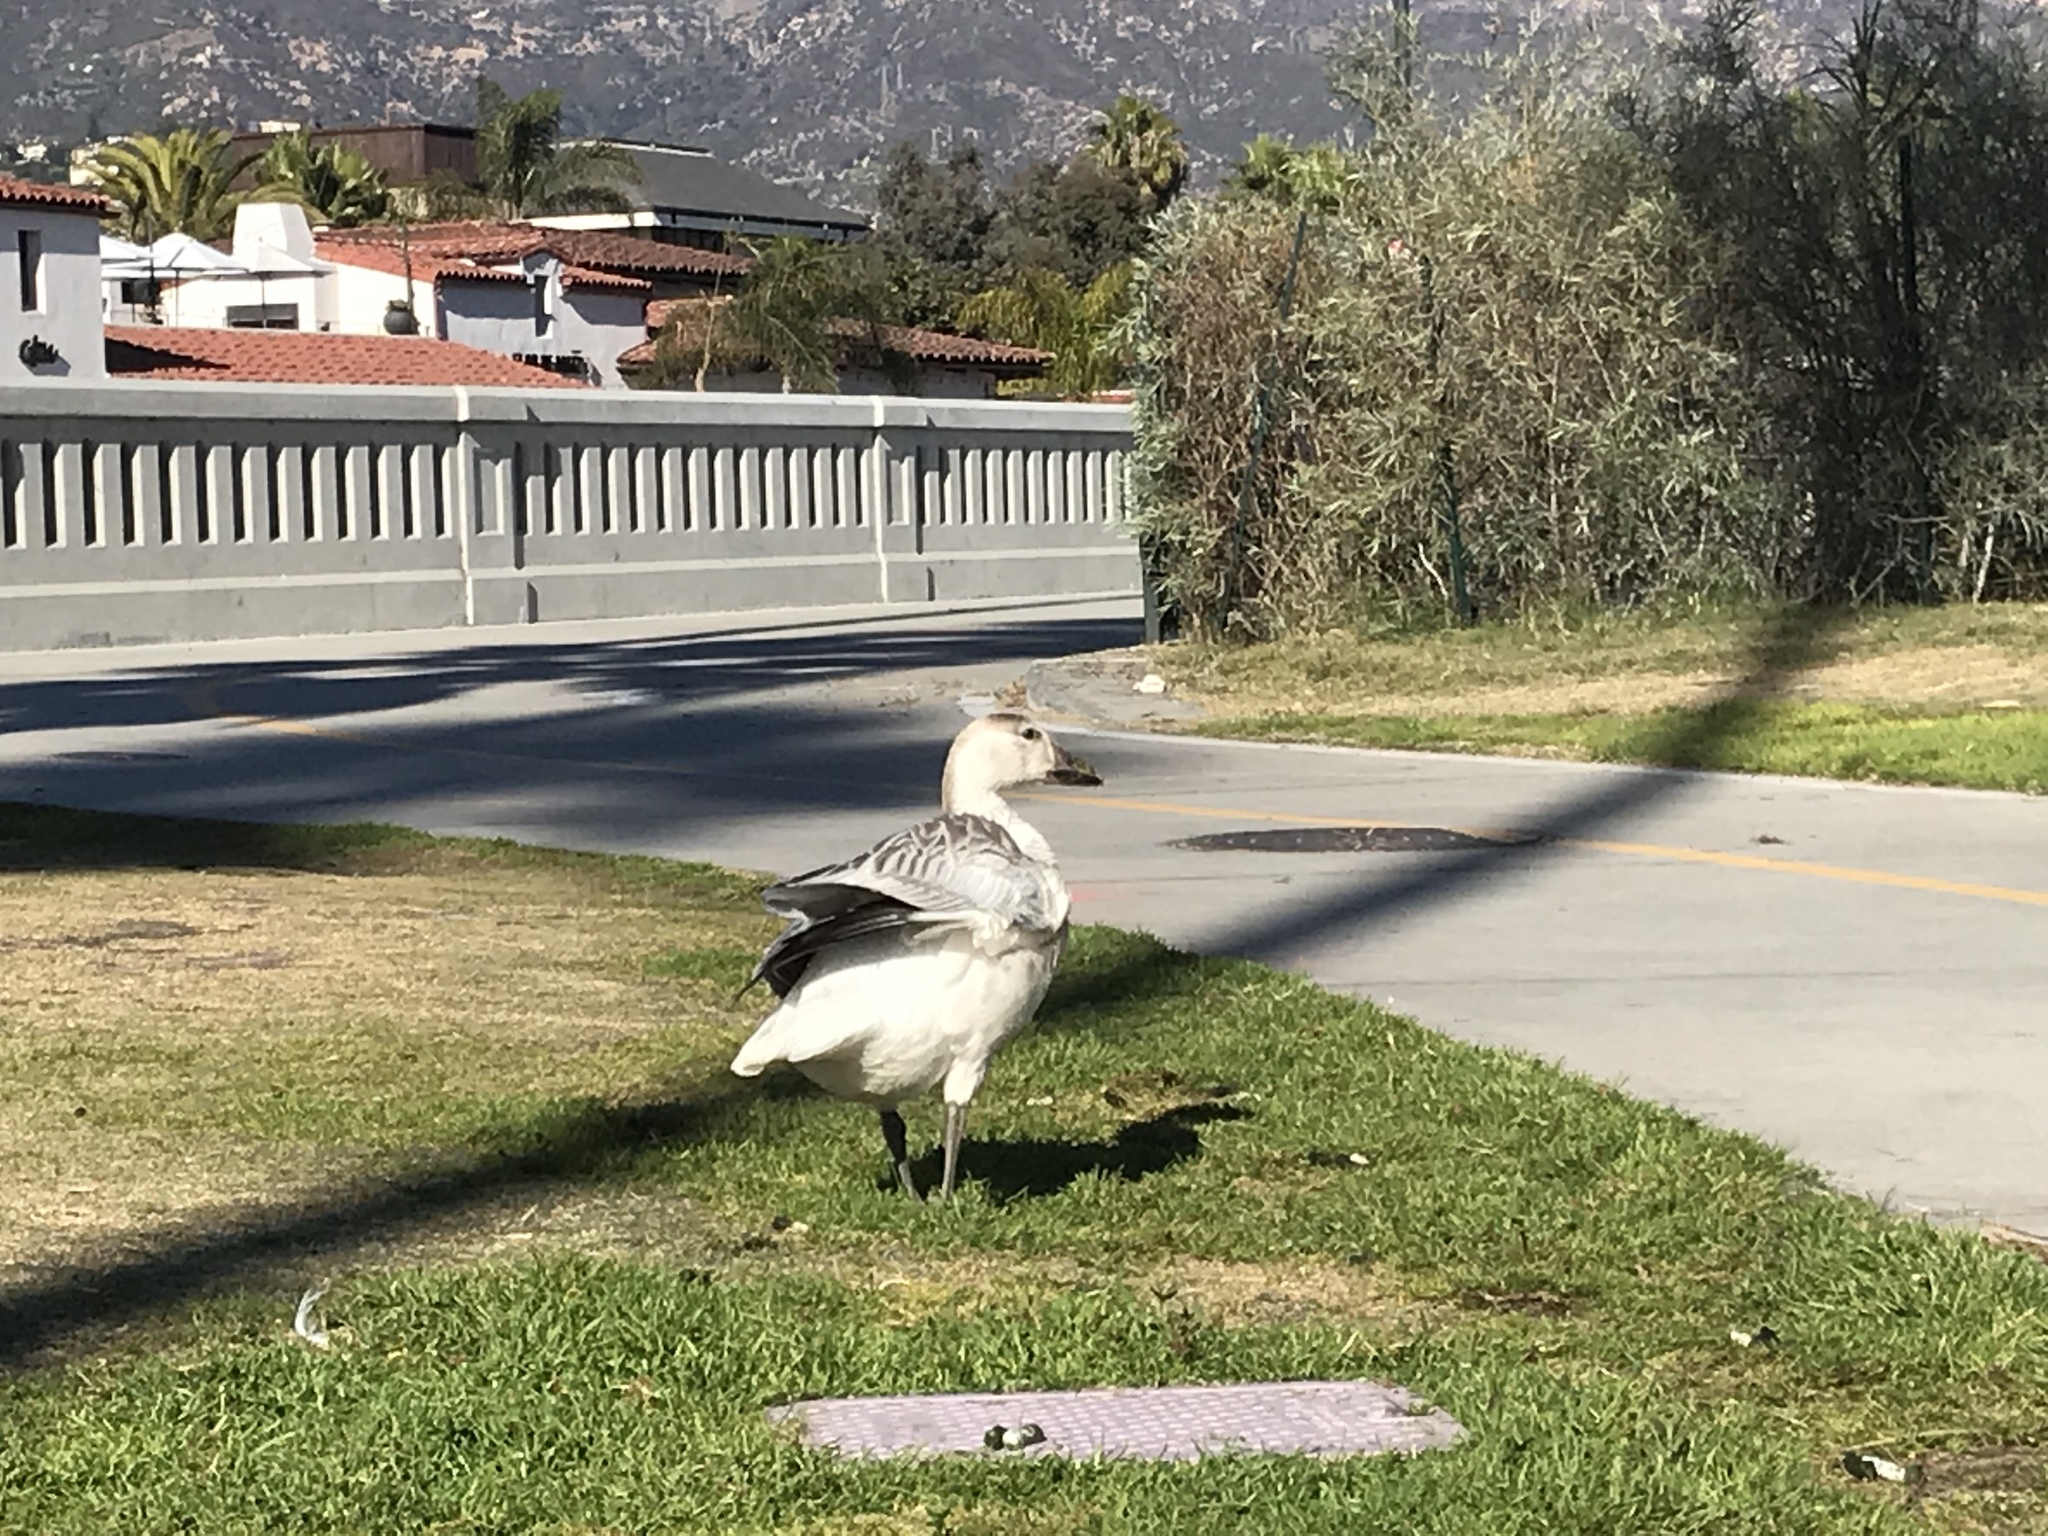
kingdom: Animalia
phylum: Chordata
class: Aves
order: Anseriformes
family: Anatidae
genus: Anser
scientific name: Anser caerulescens
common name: Snow goose
